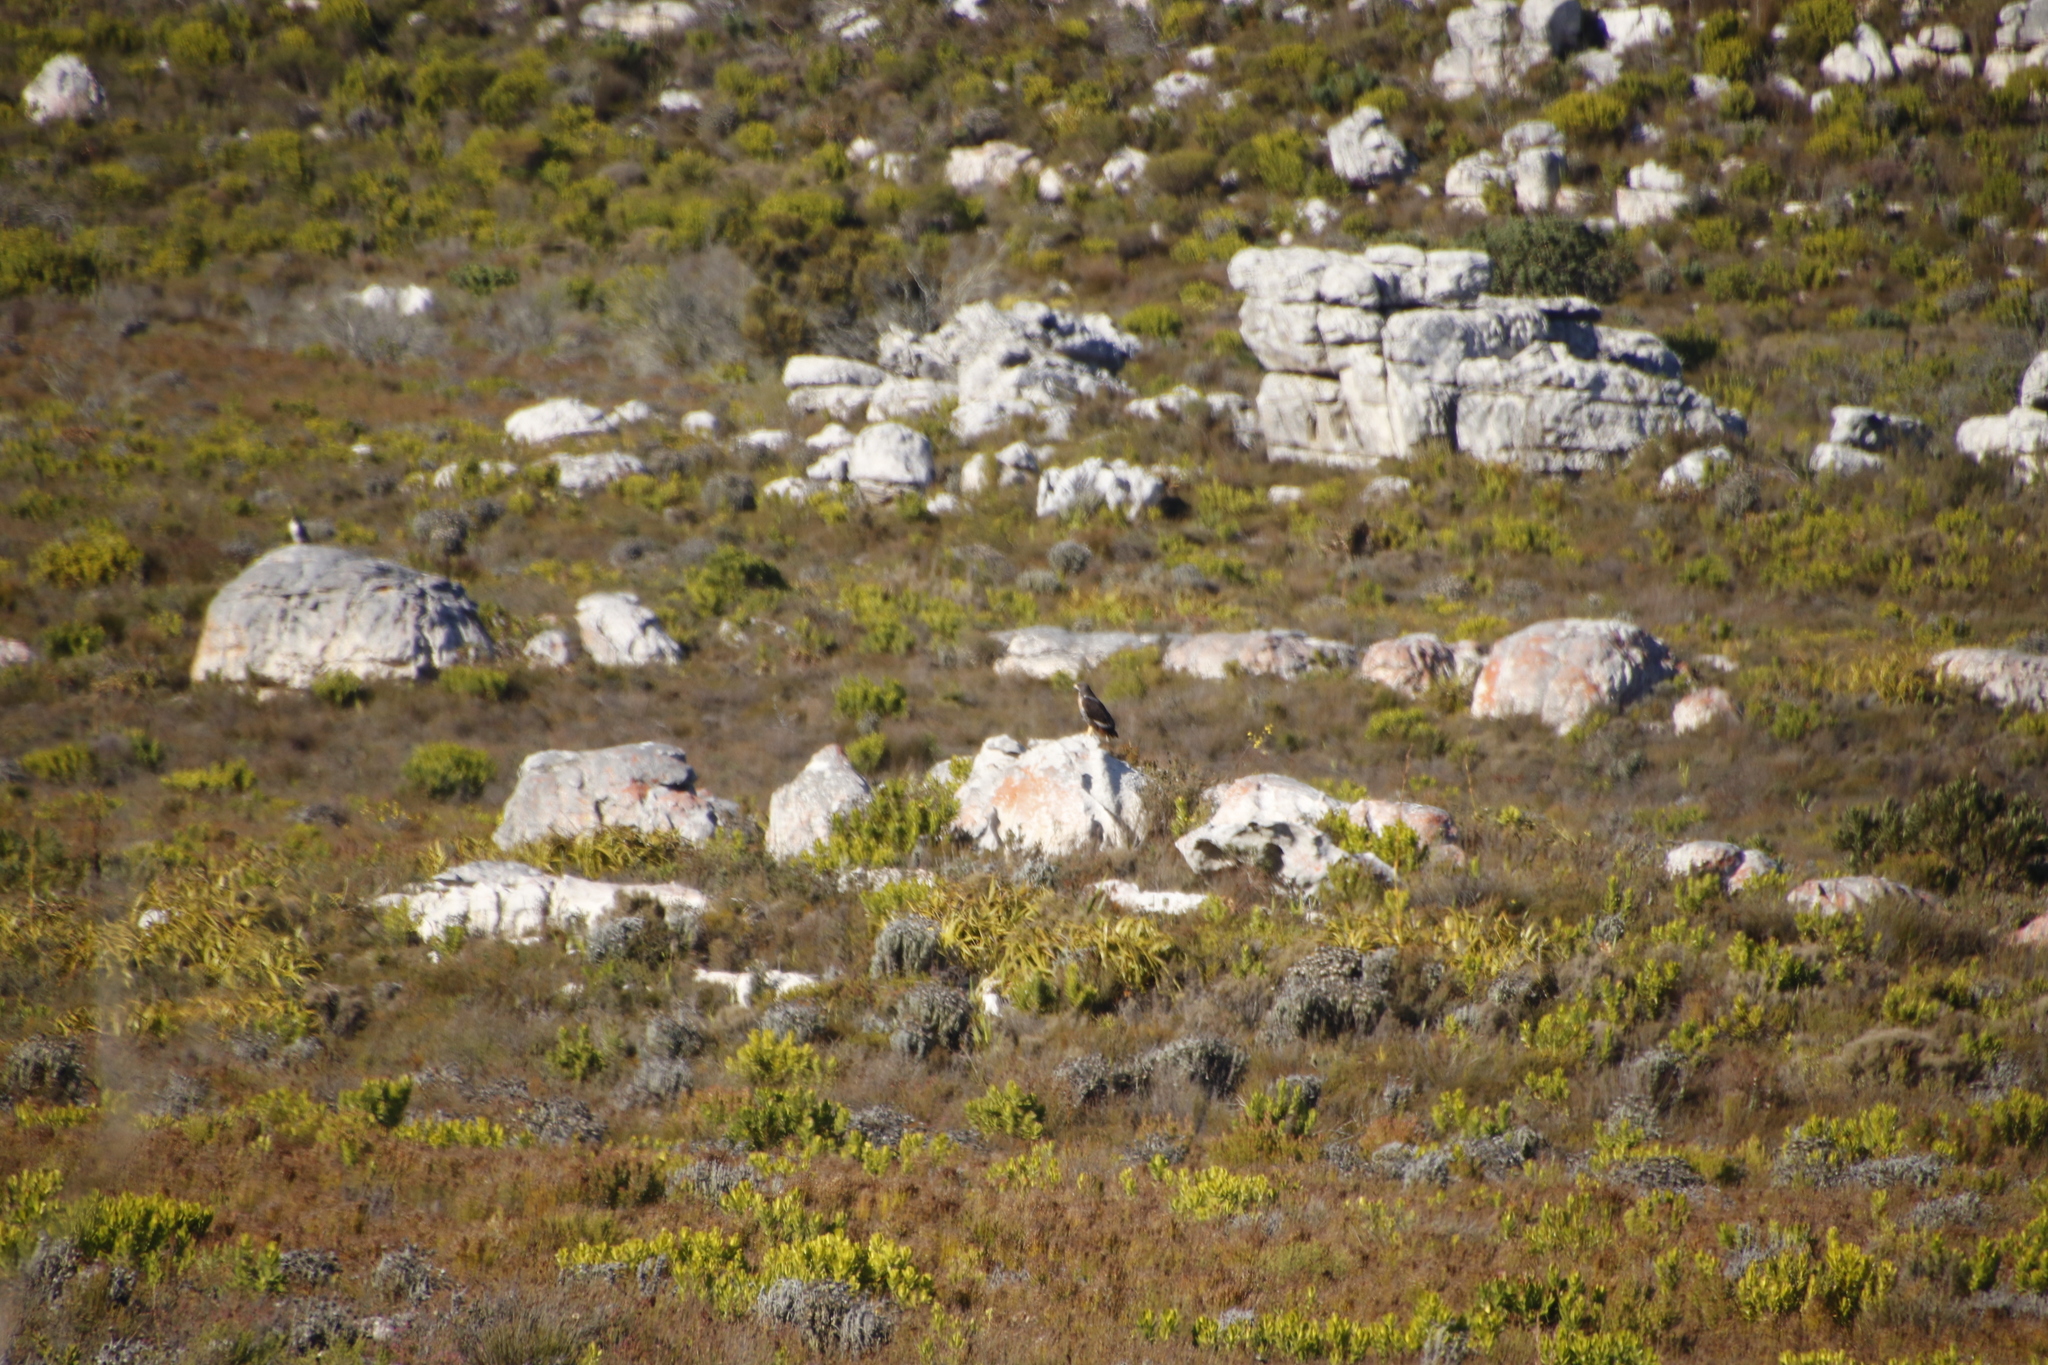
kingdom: Animalia
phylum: Chordata
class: Aves
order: Accipitriformes
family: Accipitridae
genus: Buteo
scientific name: Buteo rufofuscus
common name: Jackal buzzard
